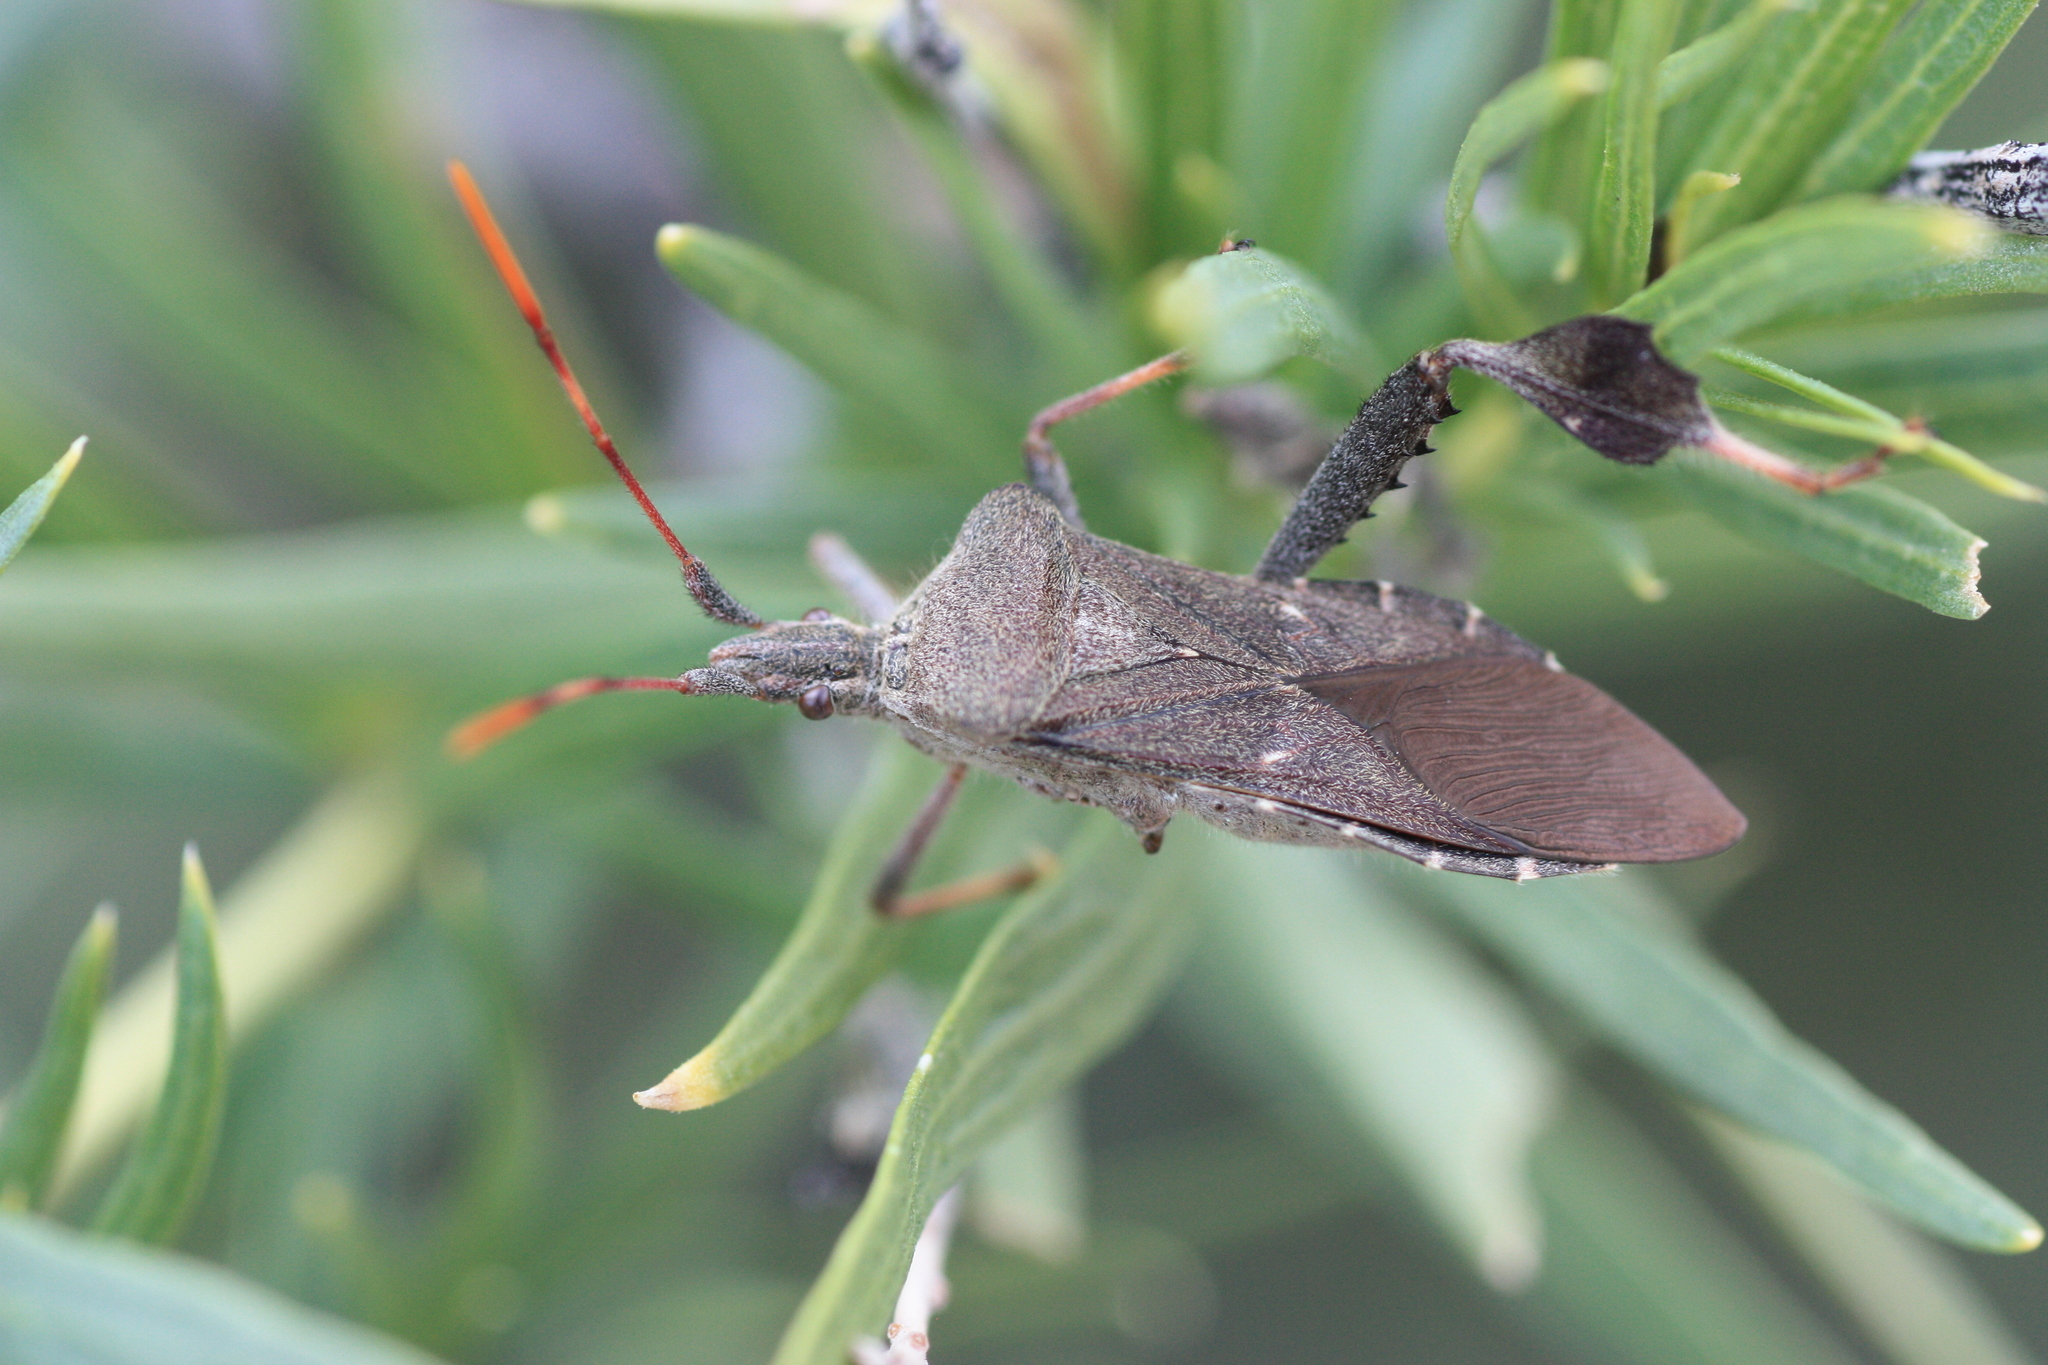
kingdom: Animalia
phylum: Arthropoda
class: Insecta
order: Hemiptera
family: Coreidae
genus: Leptoglossus
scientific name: Leptoglossus oppositus
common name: Northern leaf-footed bug
